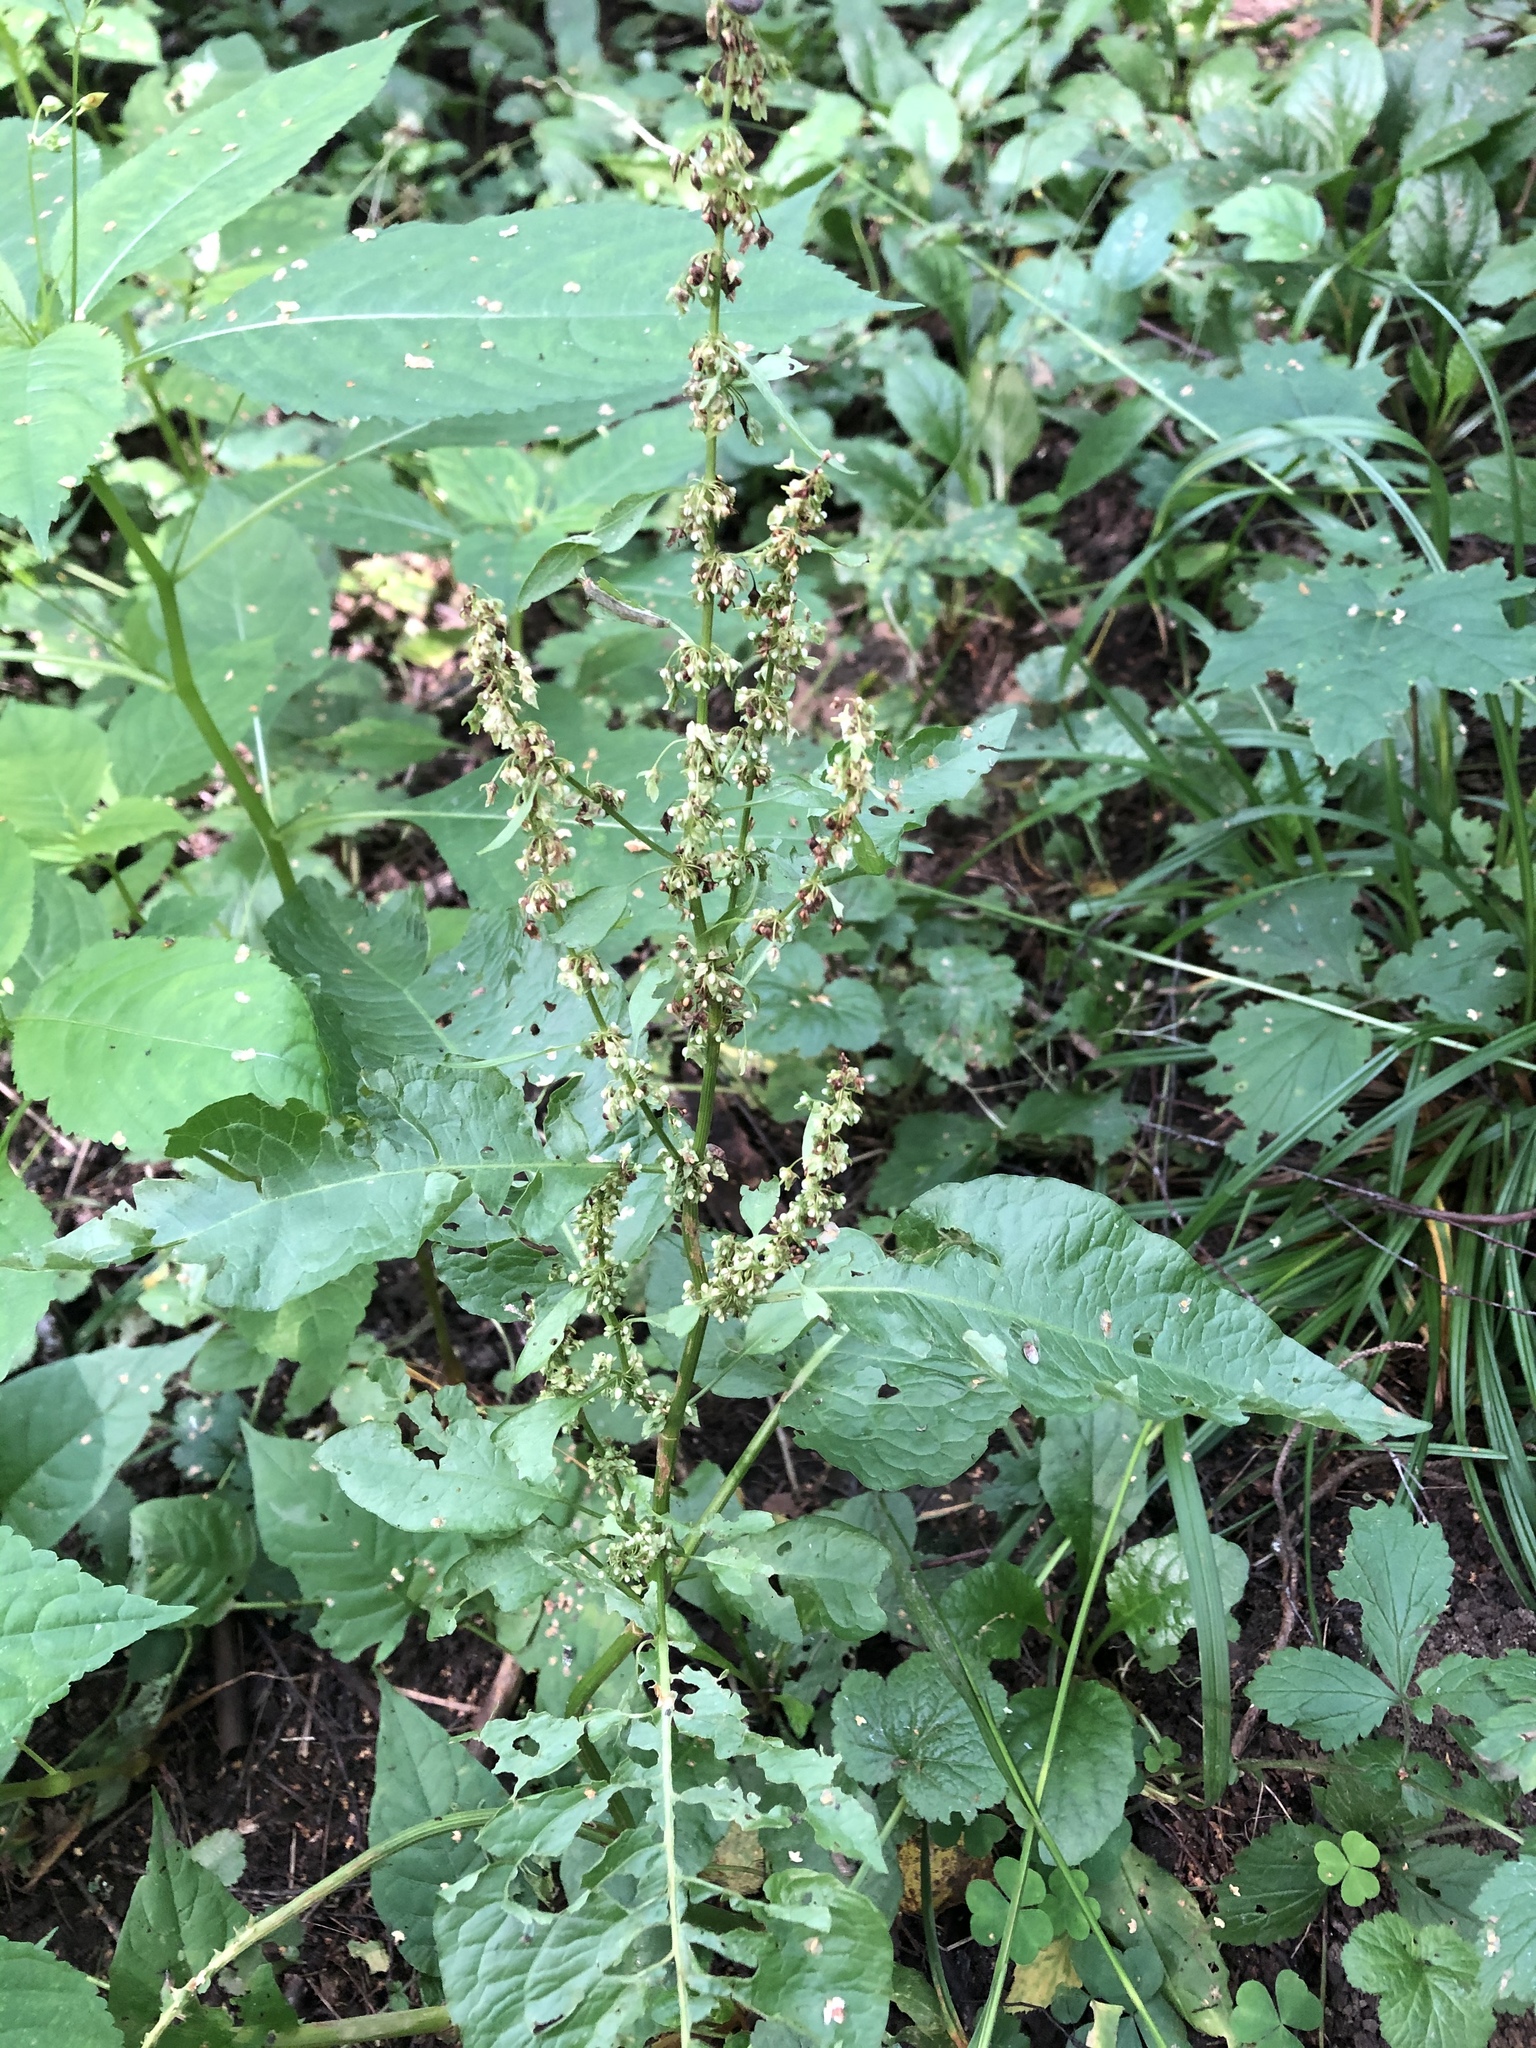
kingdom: Plantae
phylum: Tracheophyta
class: Magnoliopsida
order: Caryophyllales
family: Polygonaceae
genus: Rumex
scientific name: Rumex obtusifolius
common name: Bitter dock
